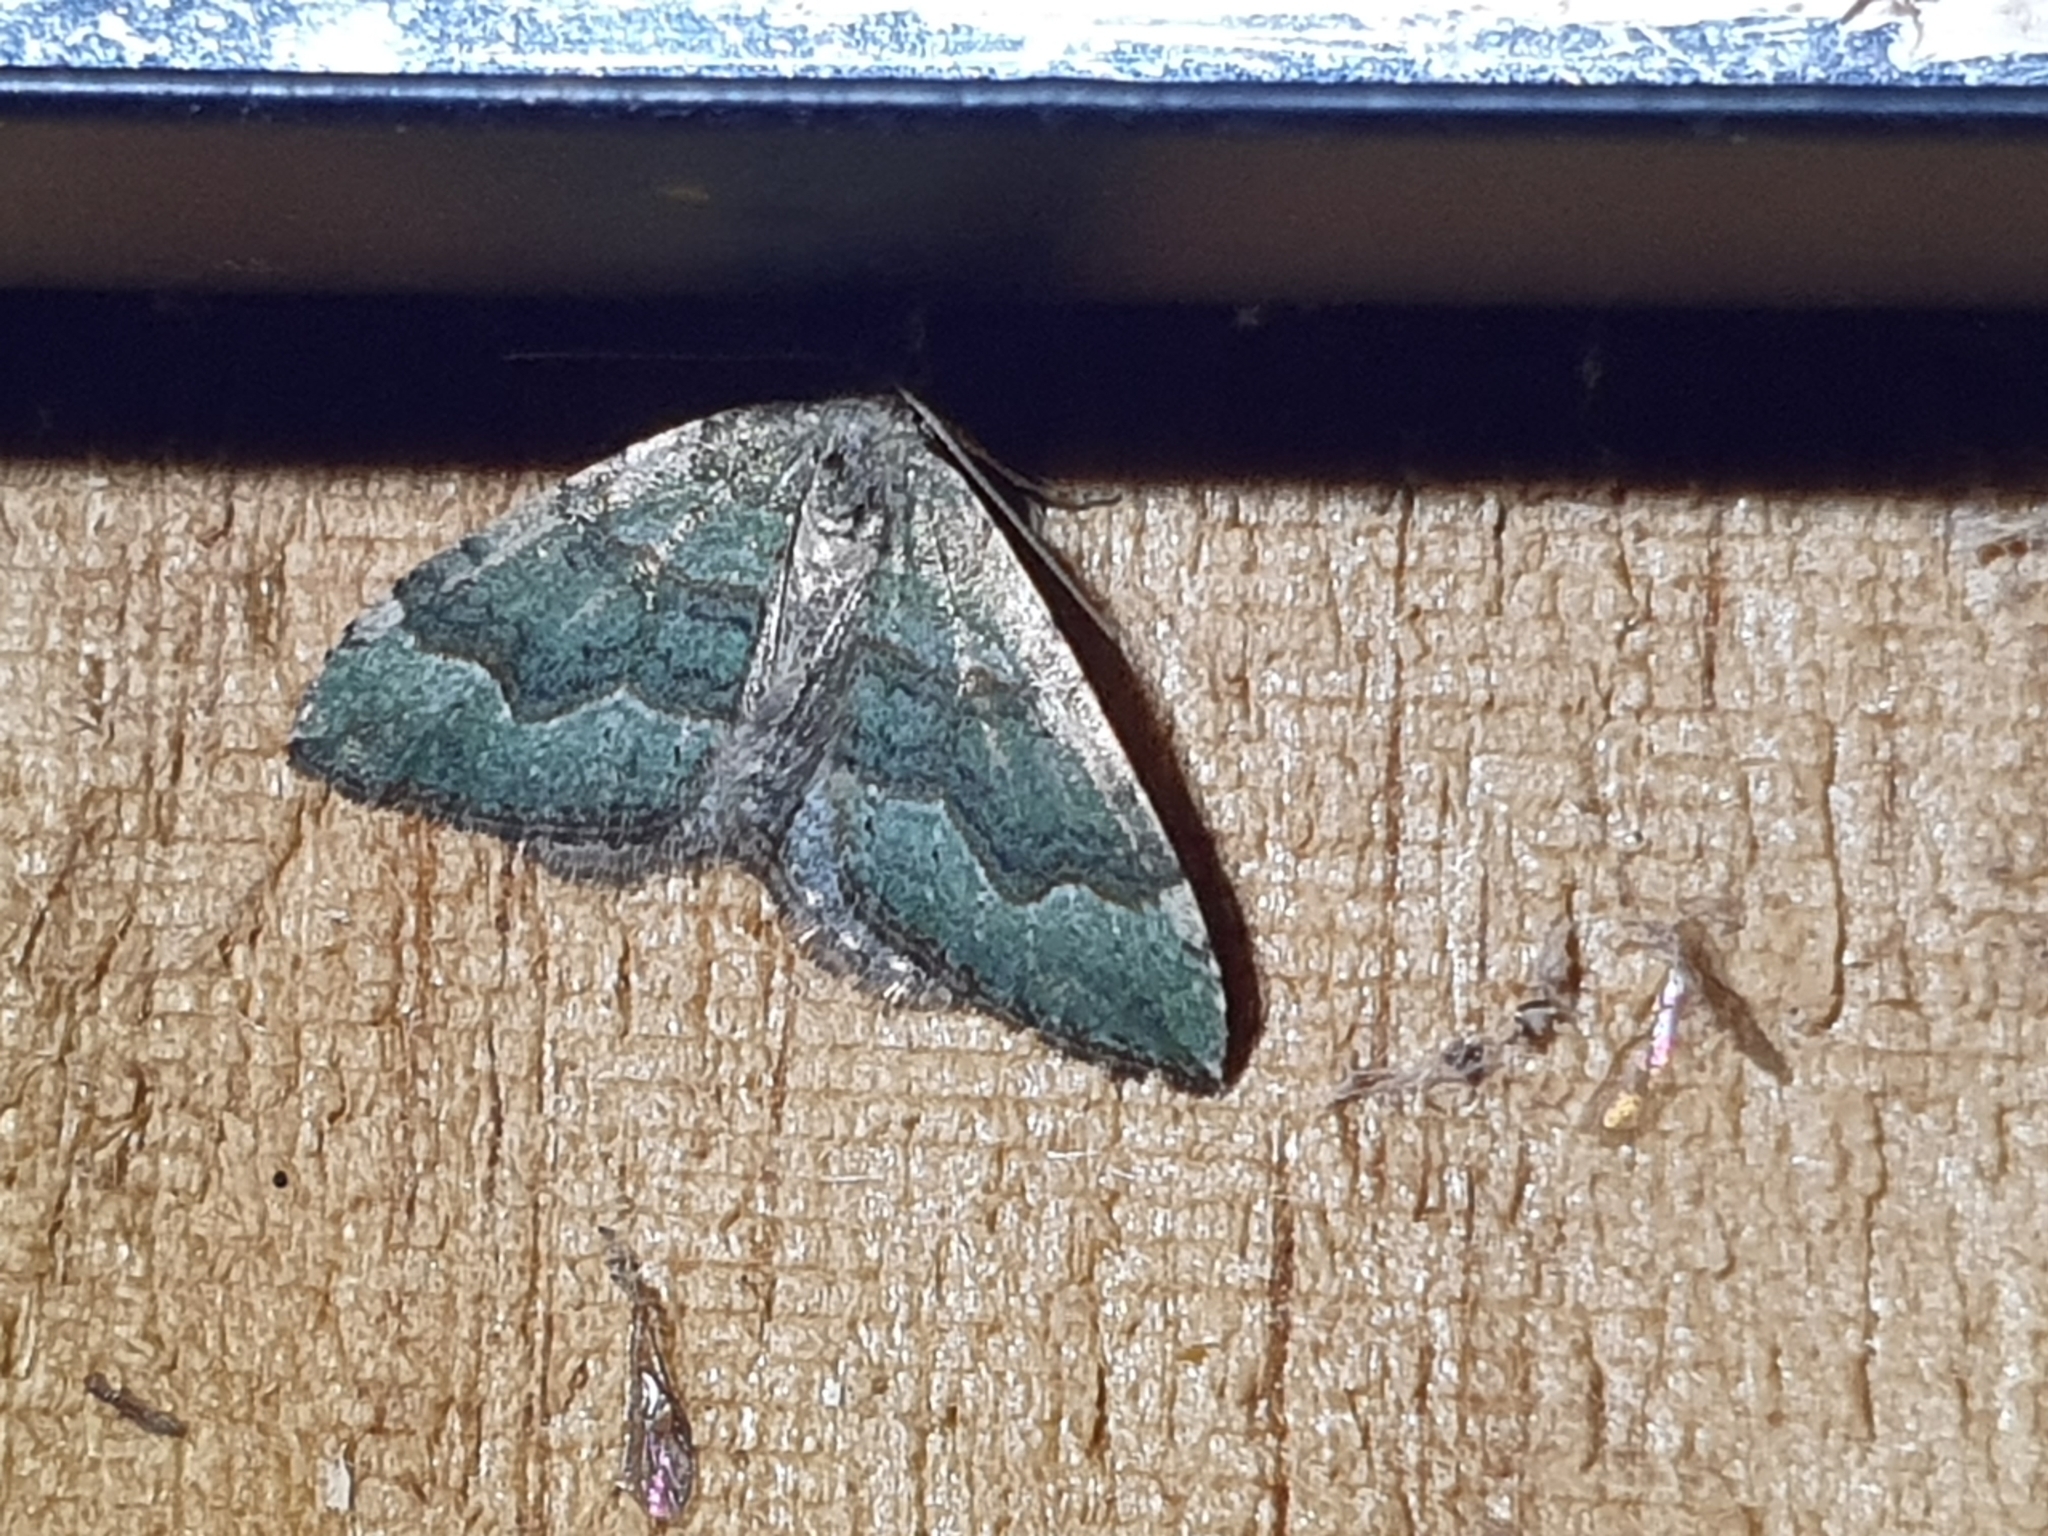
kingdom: Animalia
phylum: Arthropoda
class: Insecta
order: Lepidoptera
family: Geometridae
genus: Epyaxa
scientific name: Epyaxa rosearia
